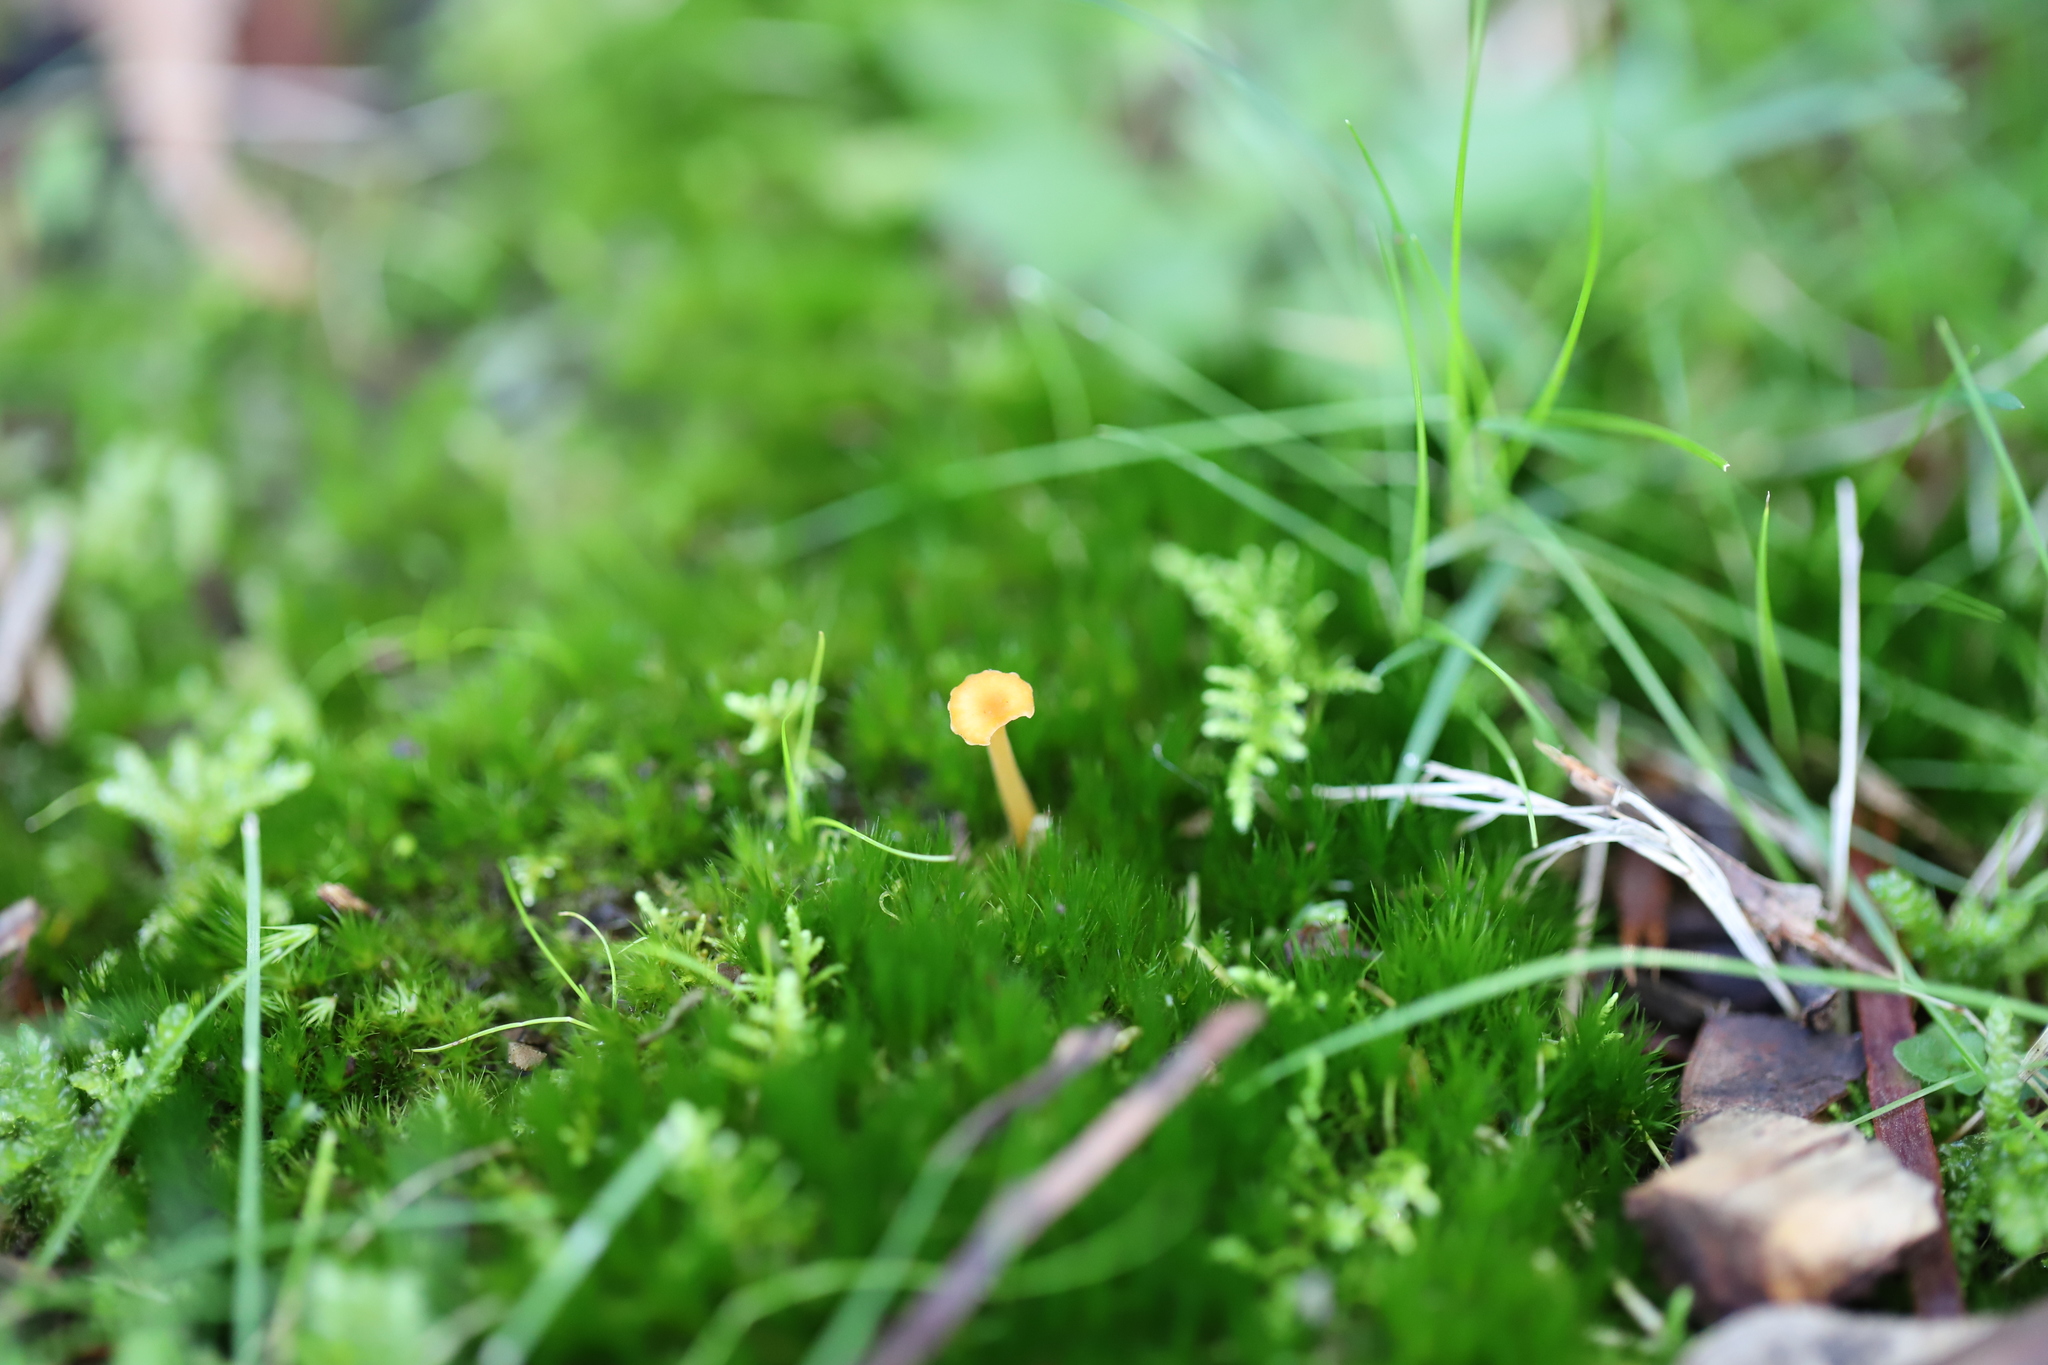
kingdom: Fungi
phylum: Basidiomycota
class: Agaricomycetes
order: Hymenochaetales
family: Rickenellaceae
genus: Rickenella
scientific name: Rickenella fibula
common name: Orange mosscap
